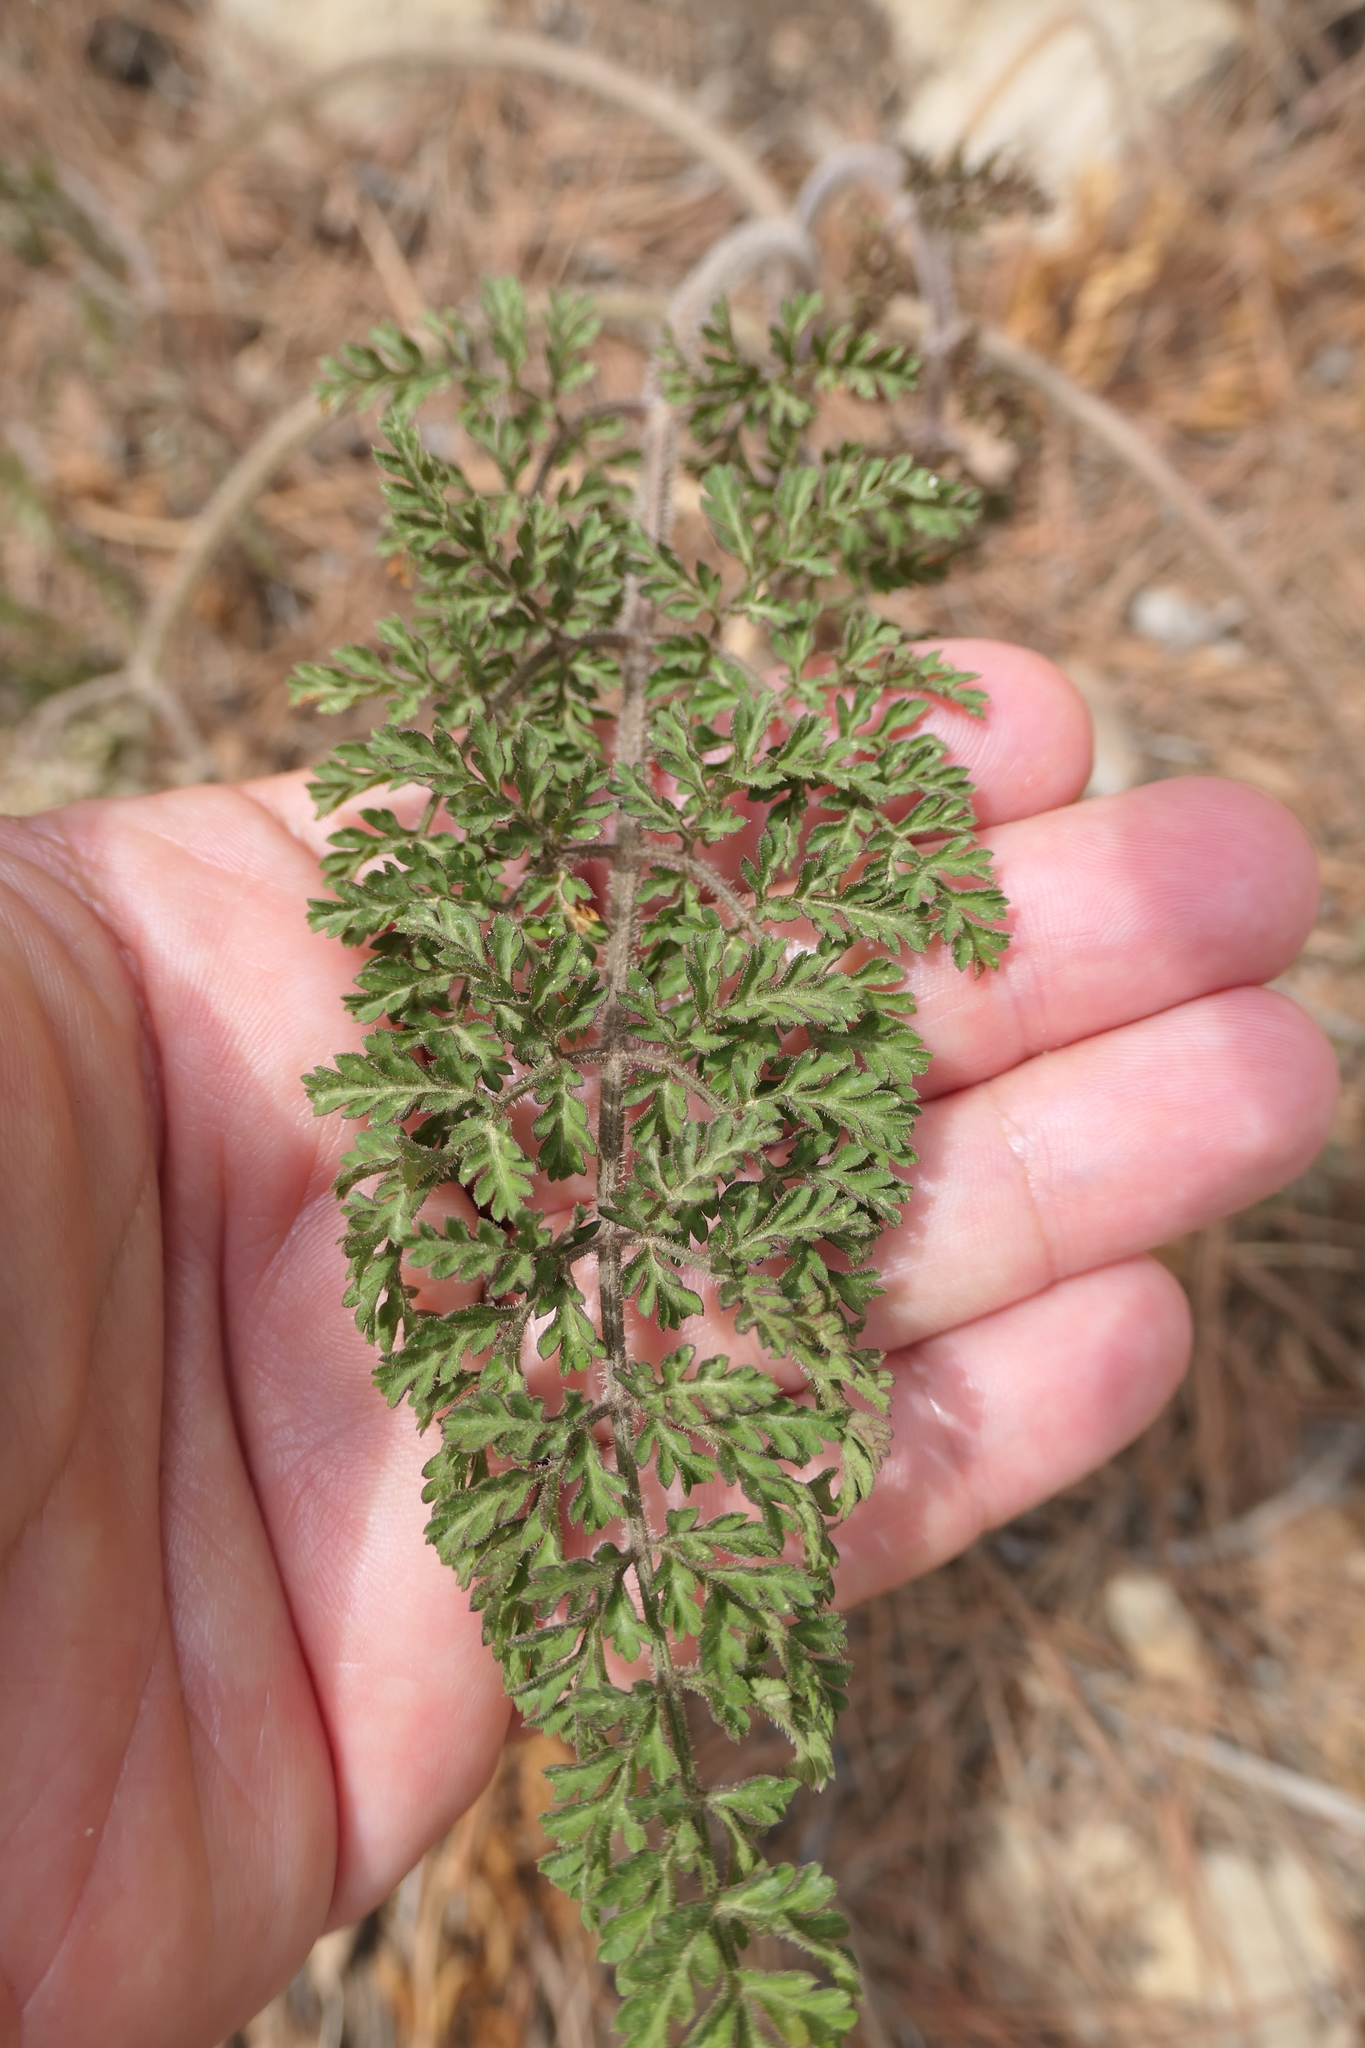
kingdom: Plantae
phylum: Tracheophyta
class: Magnoliopsida
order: Apiales
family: Apiaceae
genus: Daucus
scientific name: Daucus carota
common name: Wild carrot
